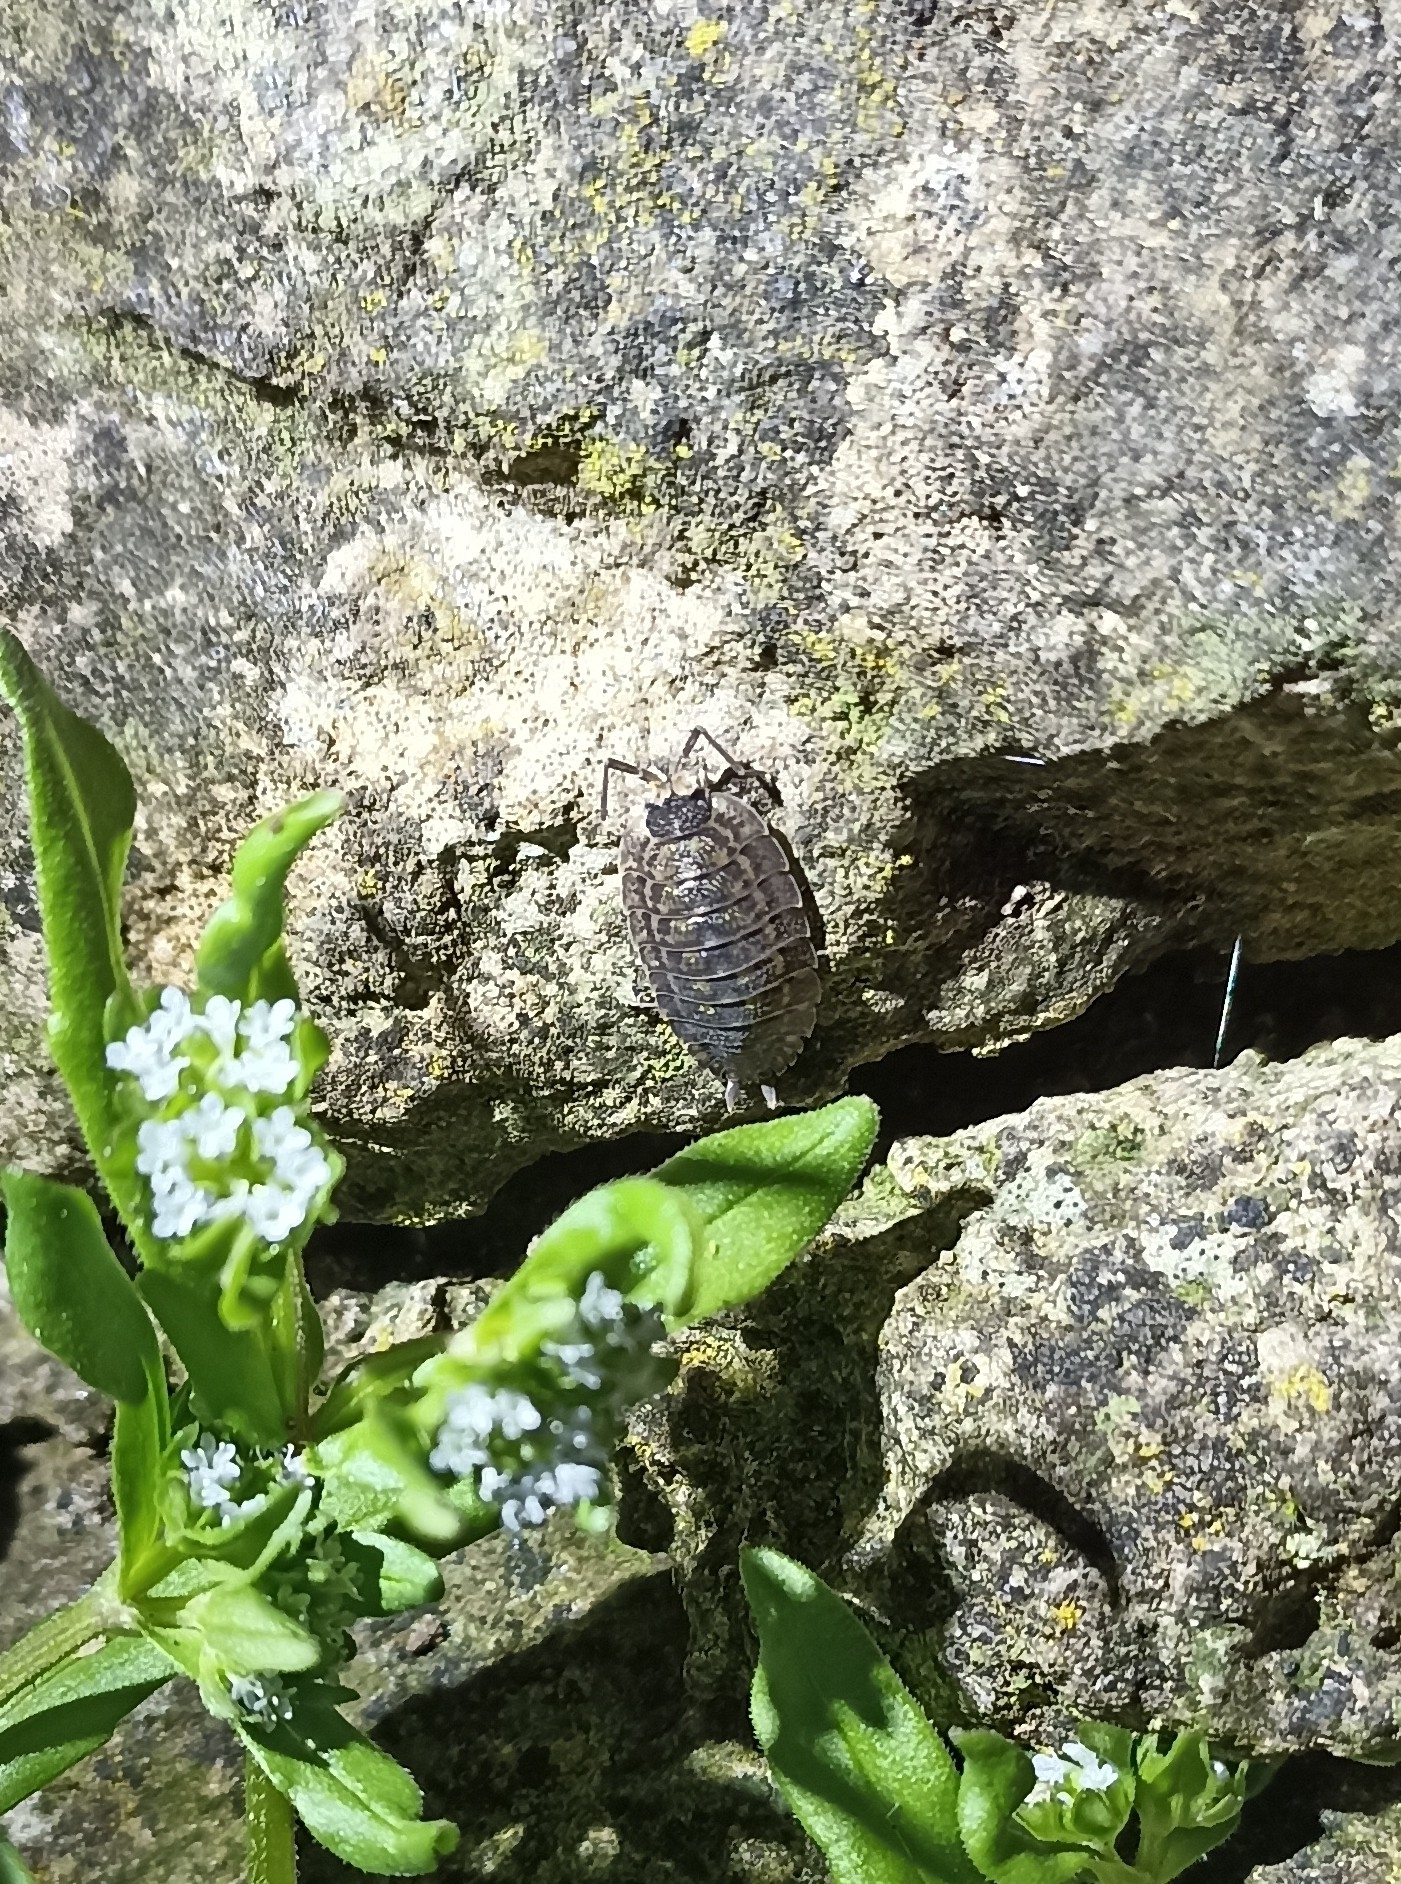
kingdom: Animalia
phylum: Arthropoda
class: Malacostraca
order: Isopoda
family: Porcellionidae
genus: Porcellio
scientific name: Porcellio spinicornis
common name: Painted woodlouse
